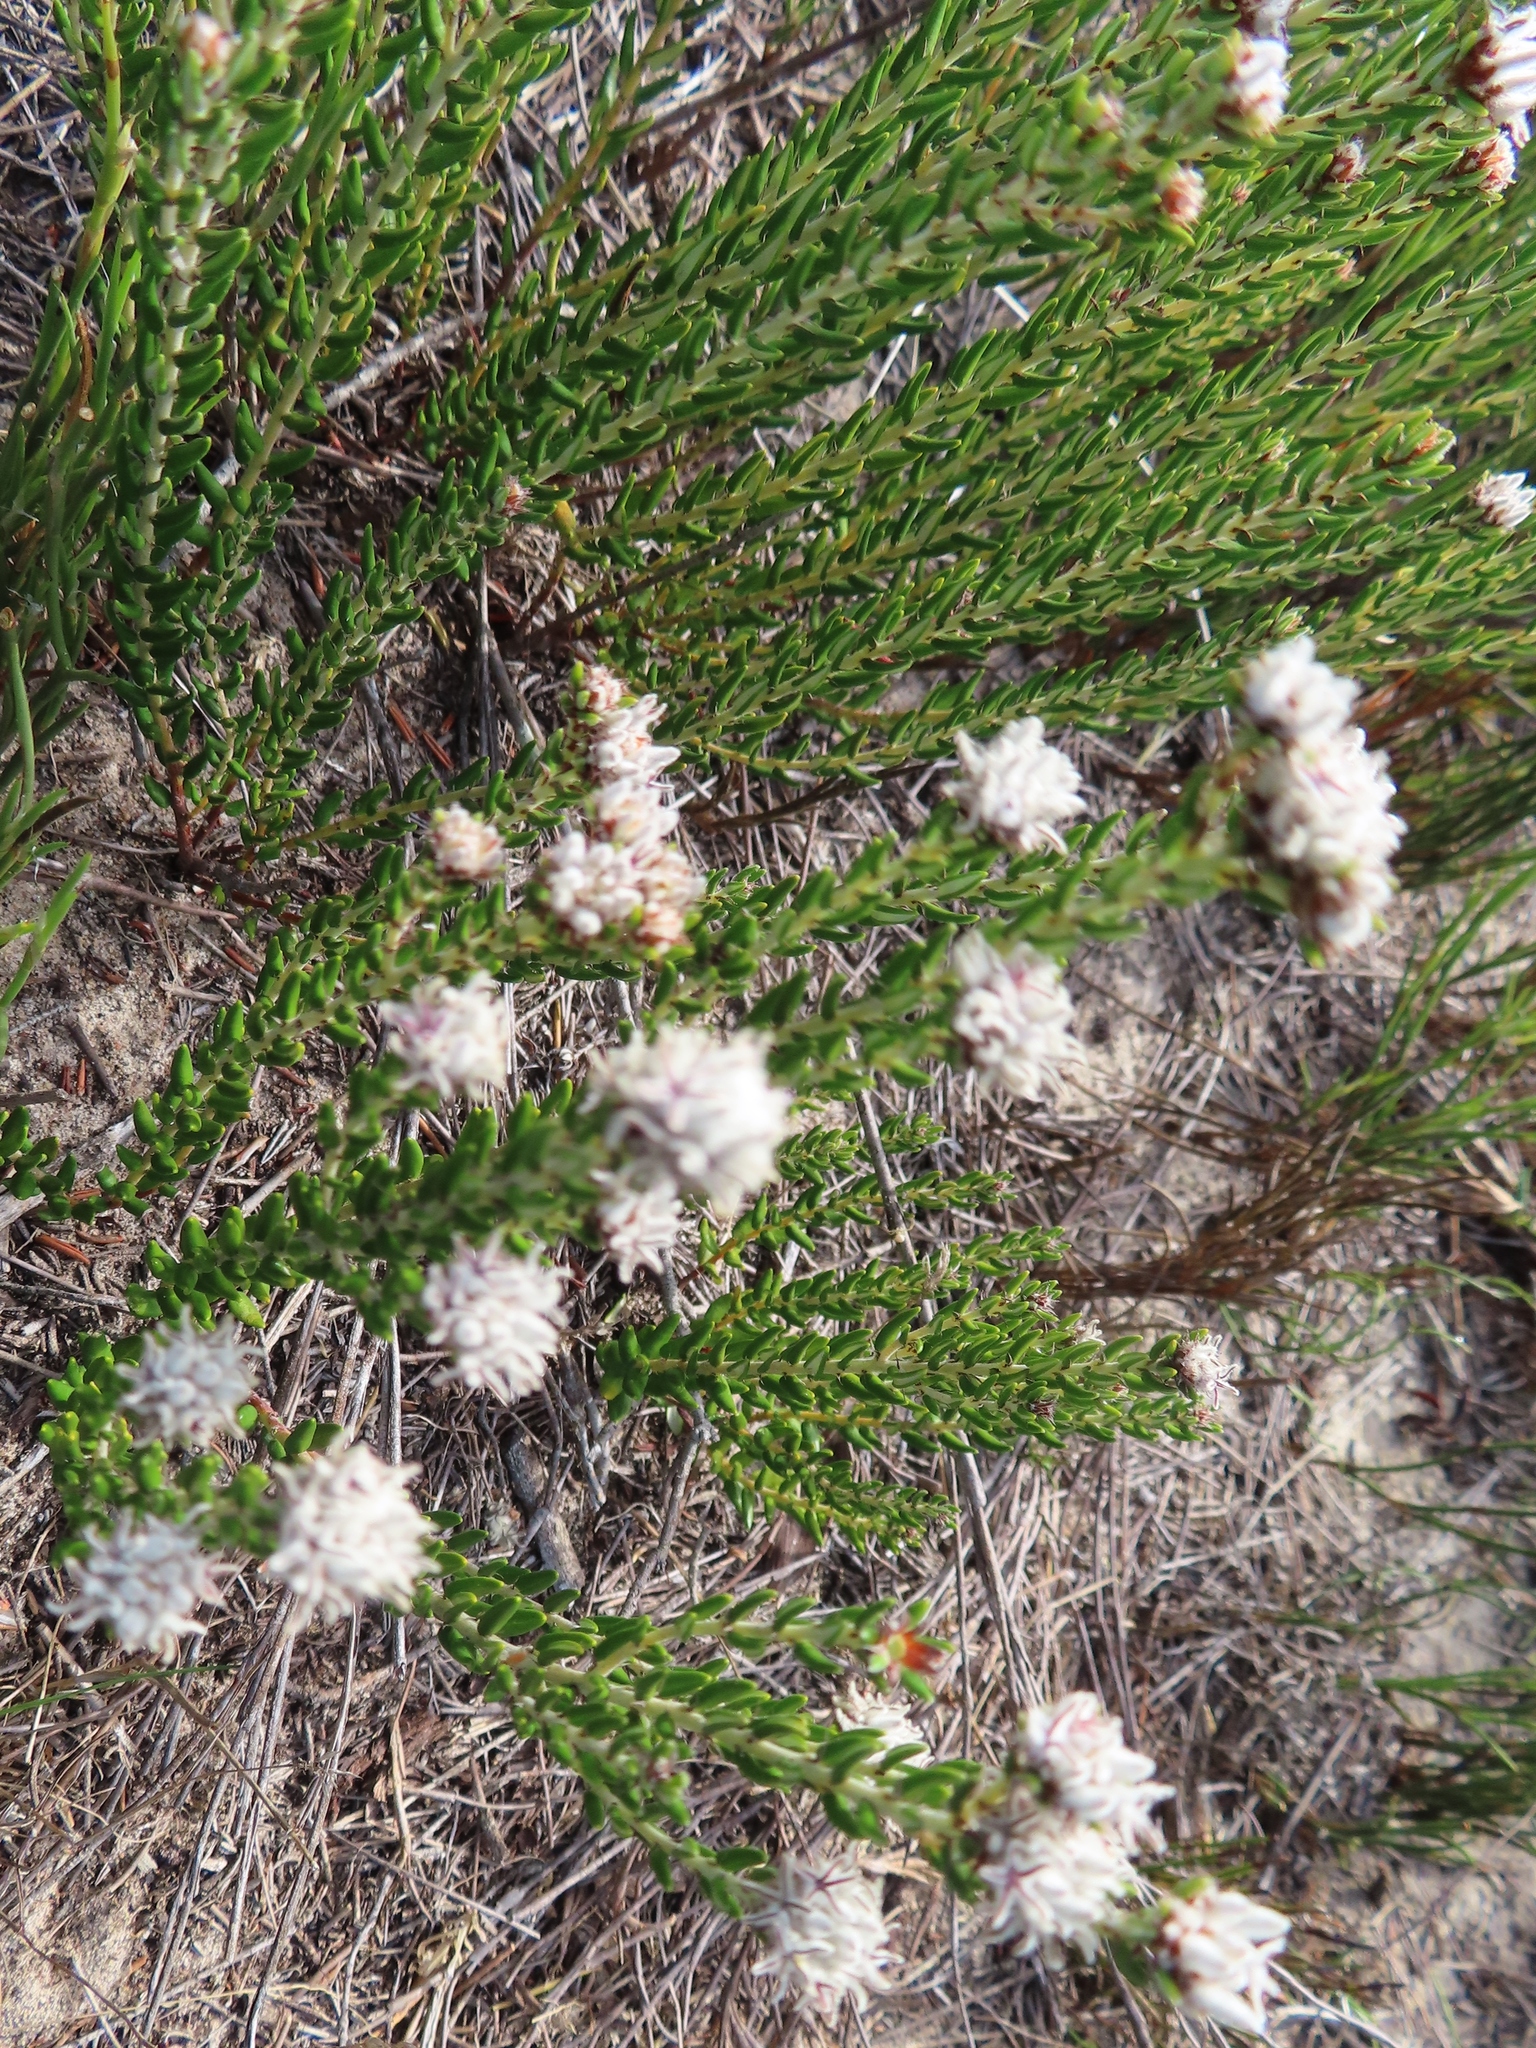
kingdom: Plantae
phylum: Tracheophyta
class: Magnoliopsida
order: Rosales
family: Rhamnaceae
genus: Trichocephalus
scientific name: Trichocephalus stipularis
